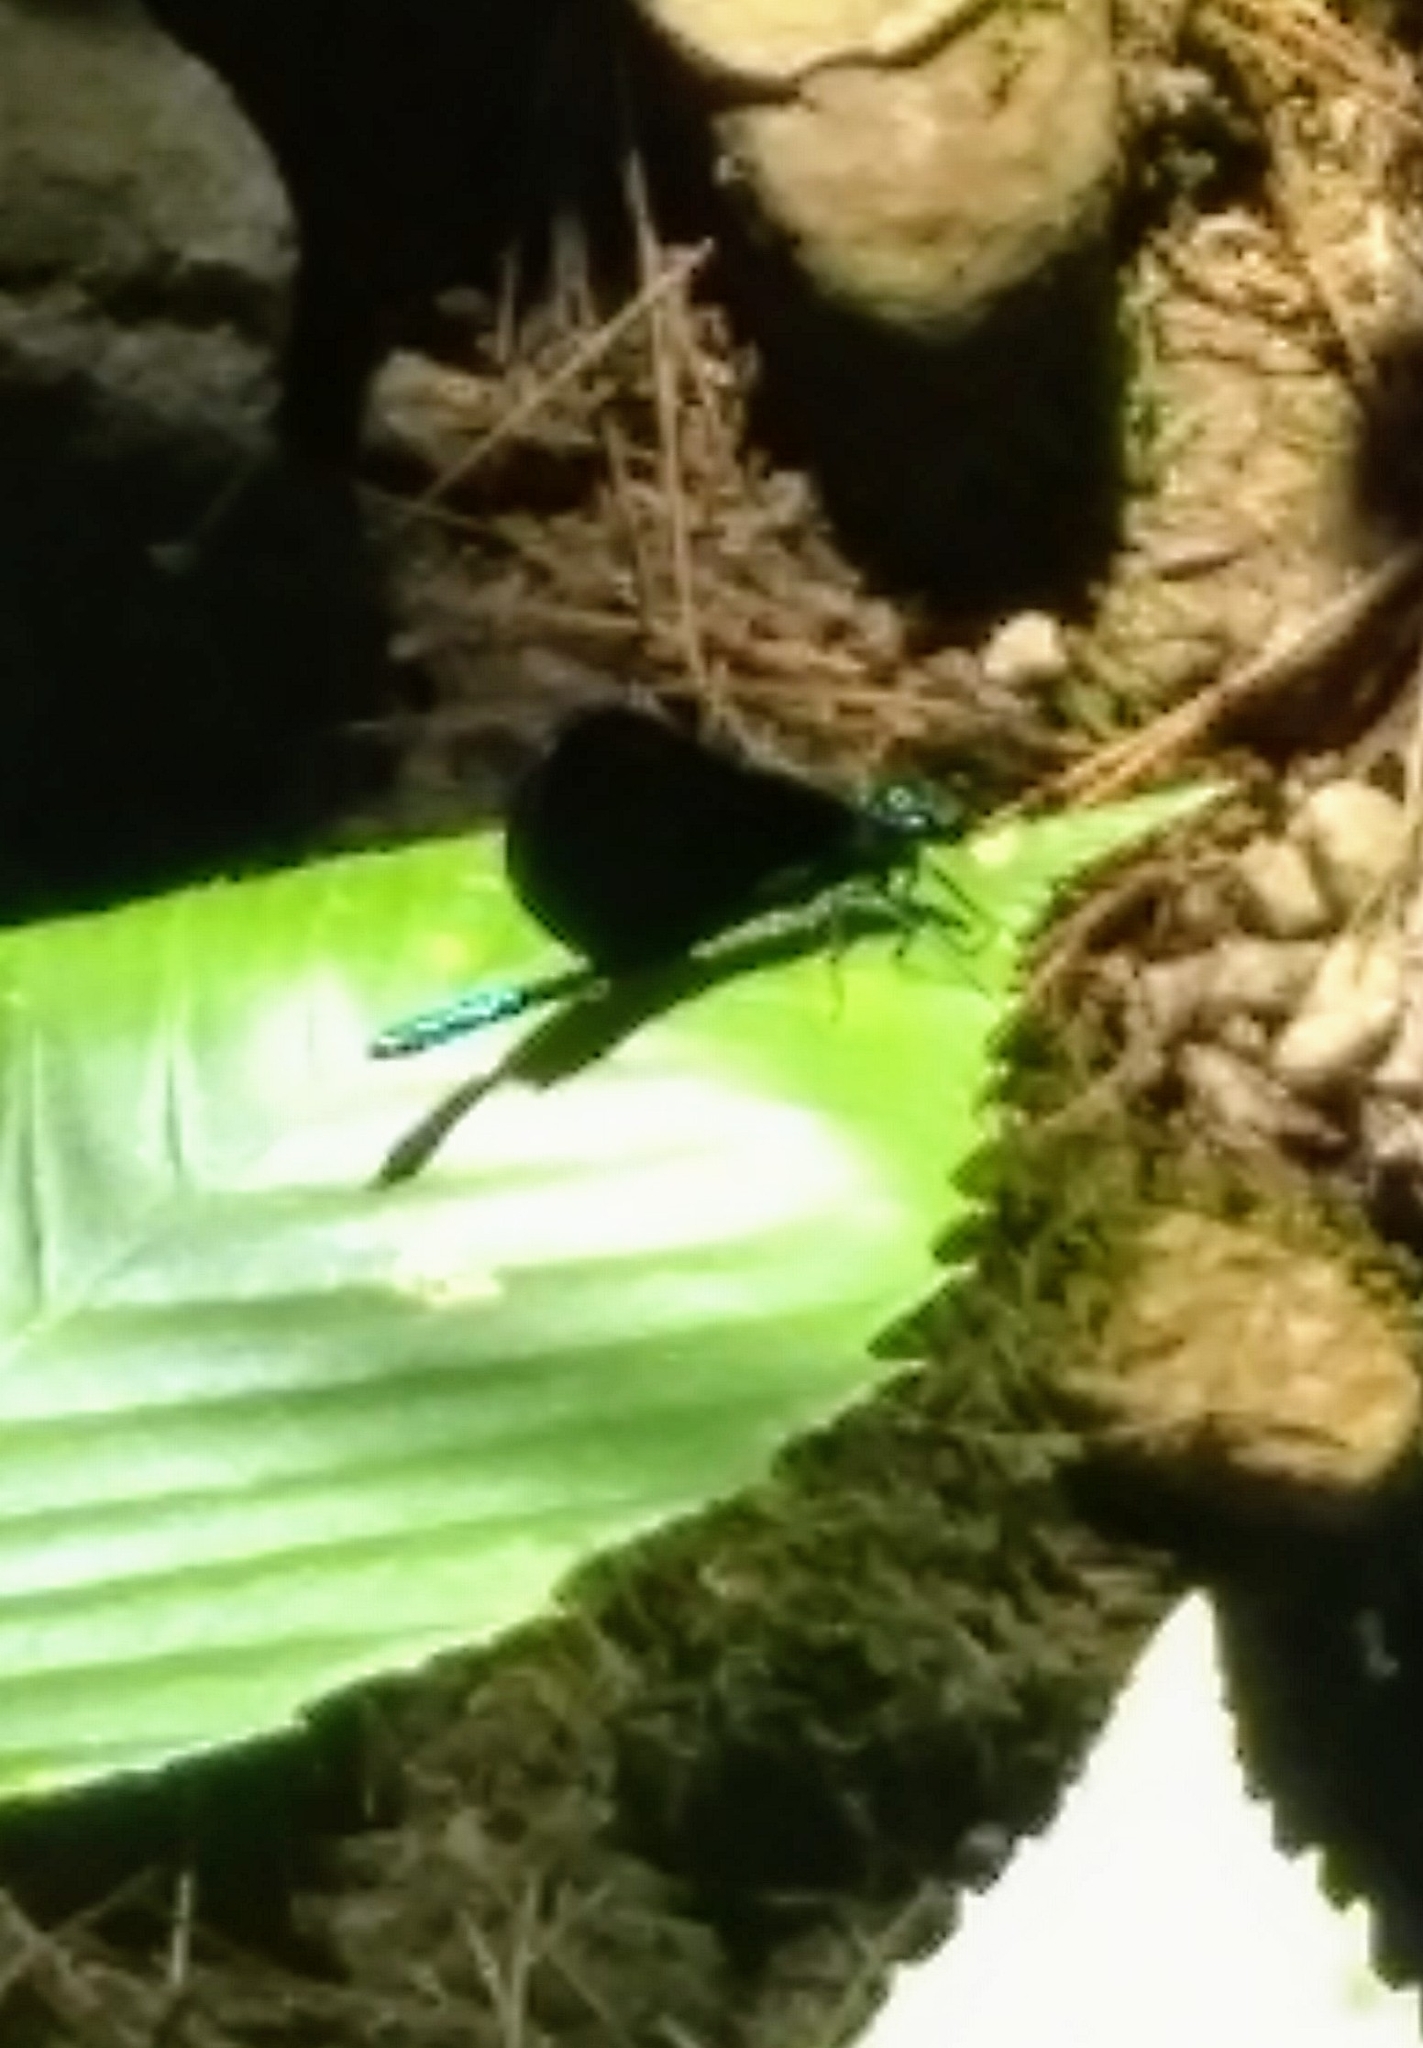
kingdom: Animalia
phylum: Arthropoda
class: Insecta
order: Odonata
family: Calopterygidae
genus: Calopteryx
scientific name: Calopteryx maculata
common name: Ebony jewelwing
